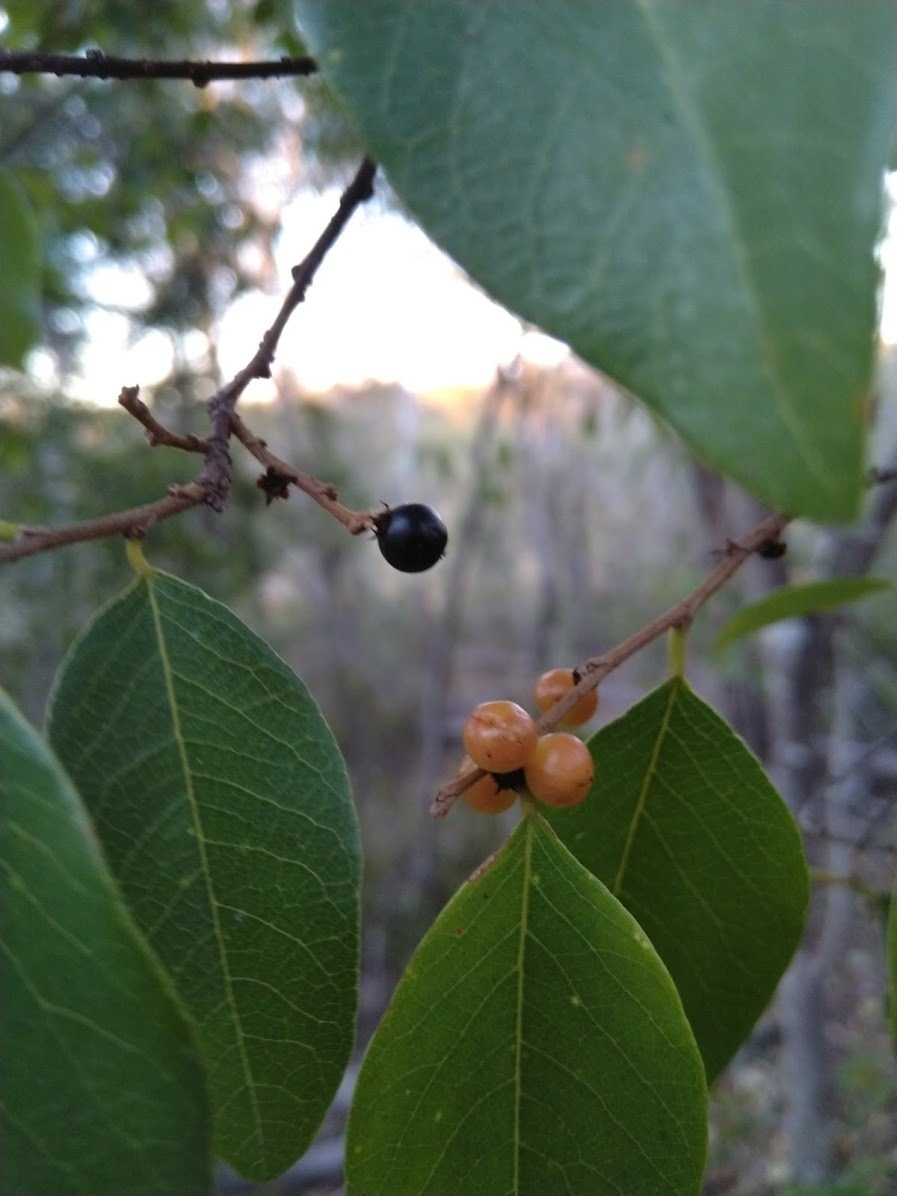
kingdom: Plantae
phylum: Tracheophyta
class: Magnoliopsida
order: Malpighiales
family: Phyllanthaceae
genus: Bridelia
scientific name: Bridelia leichhardtii
